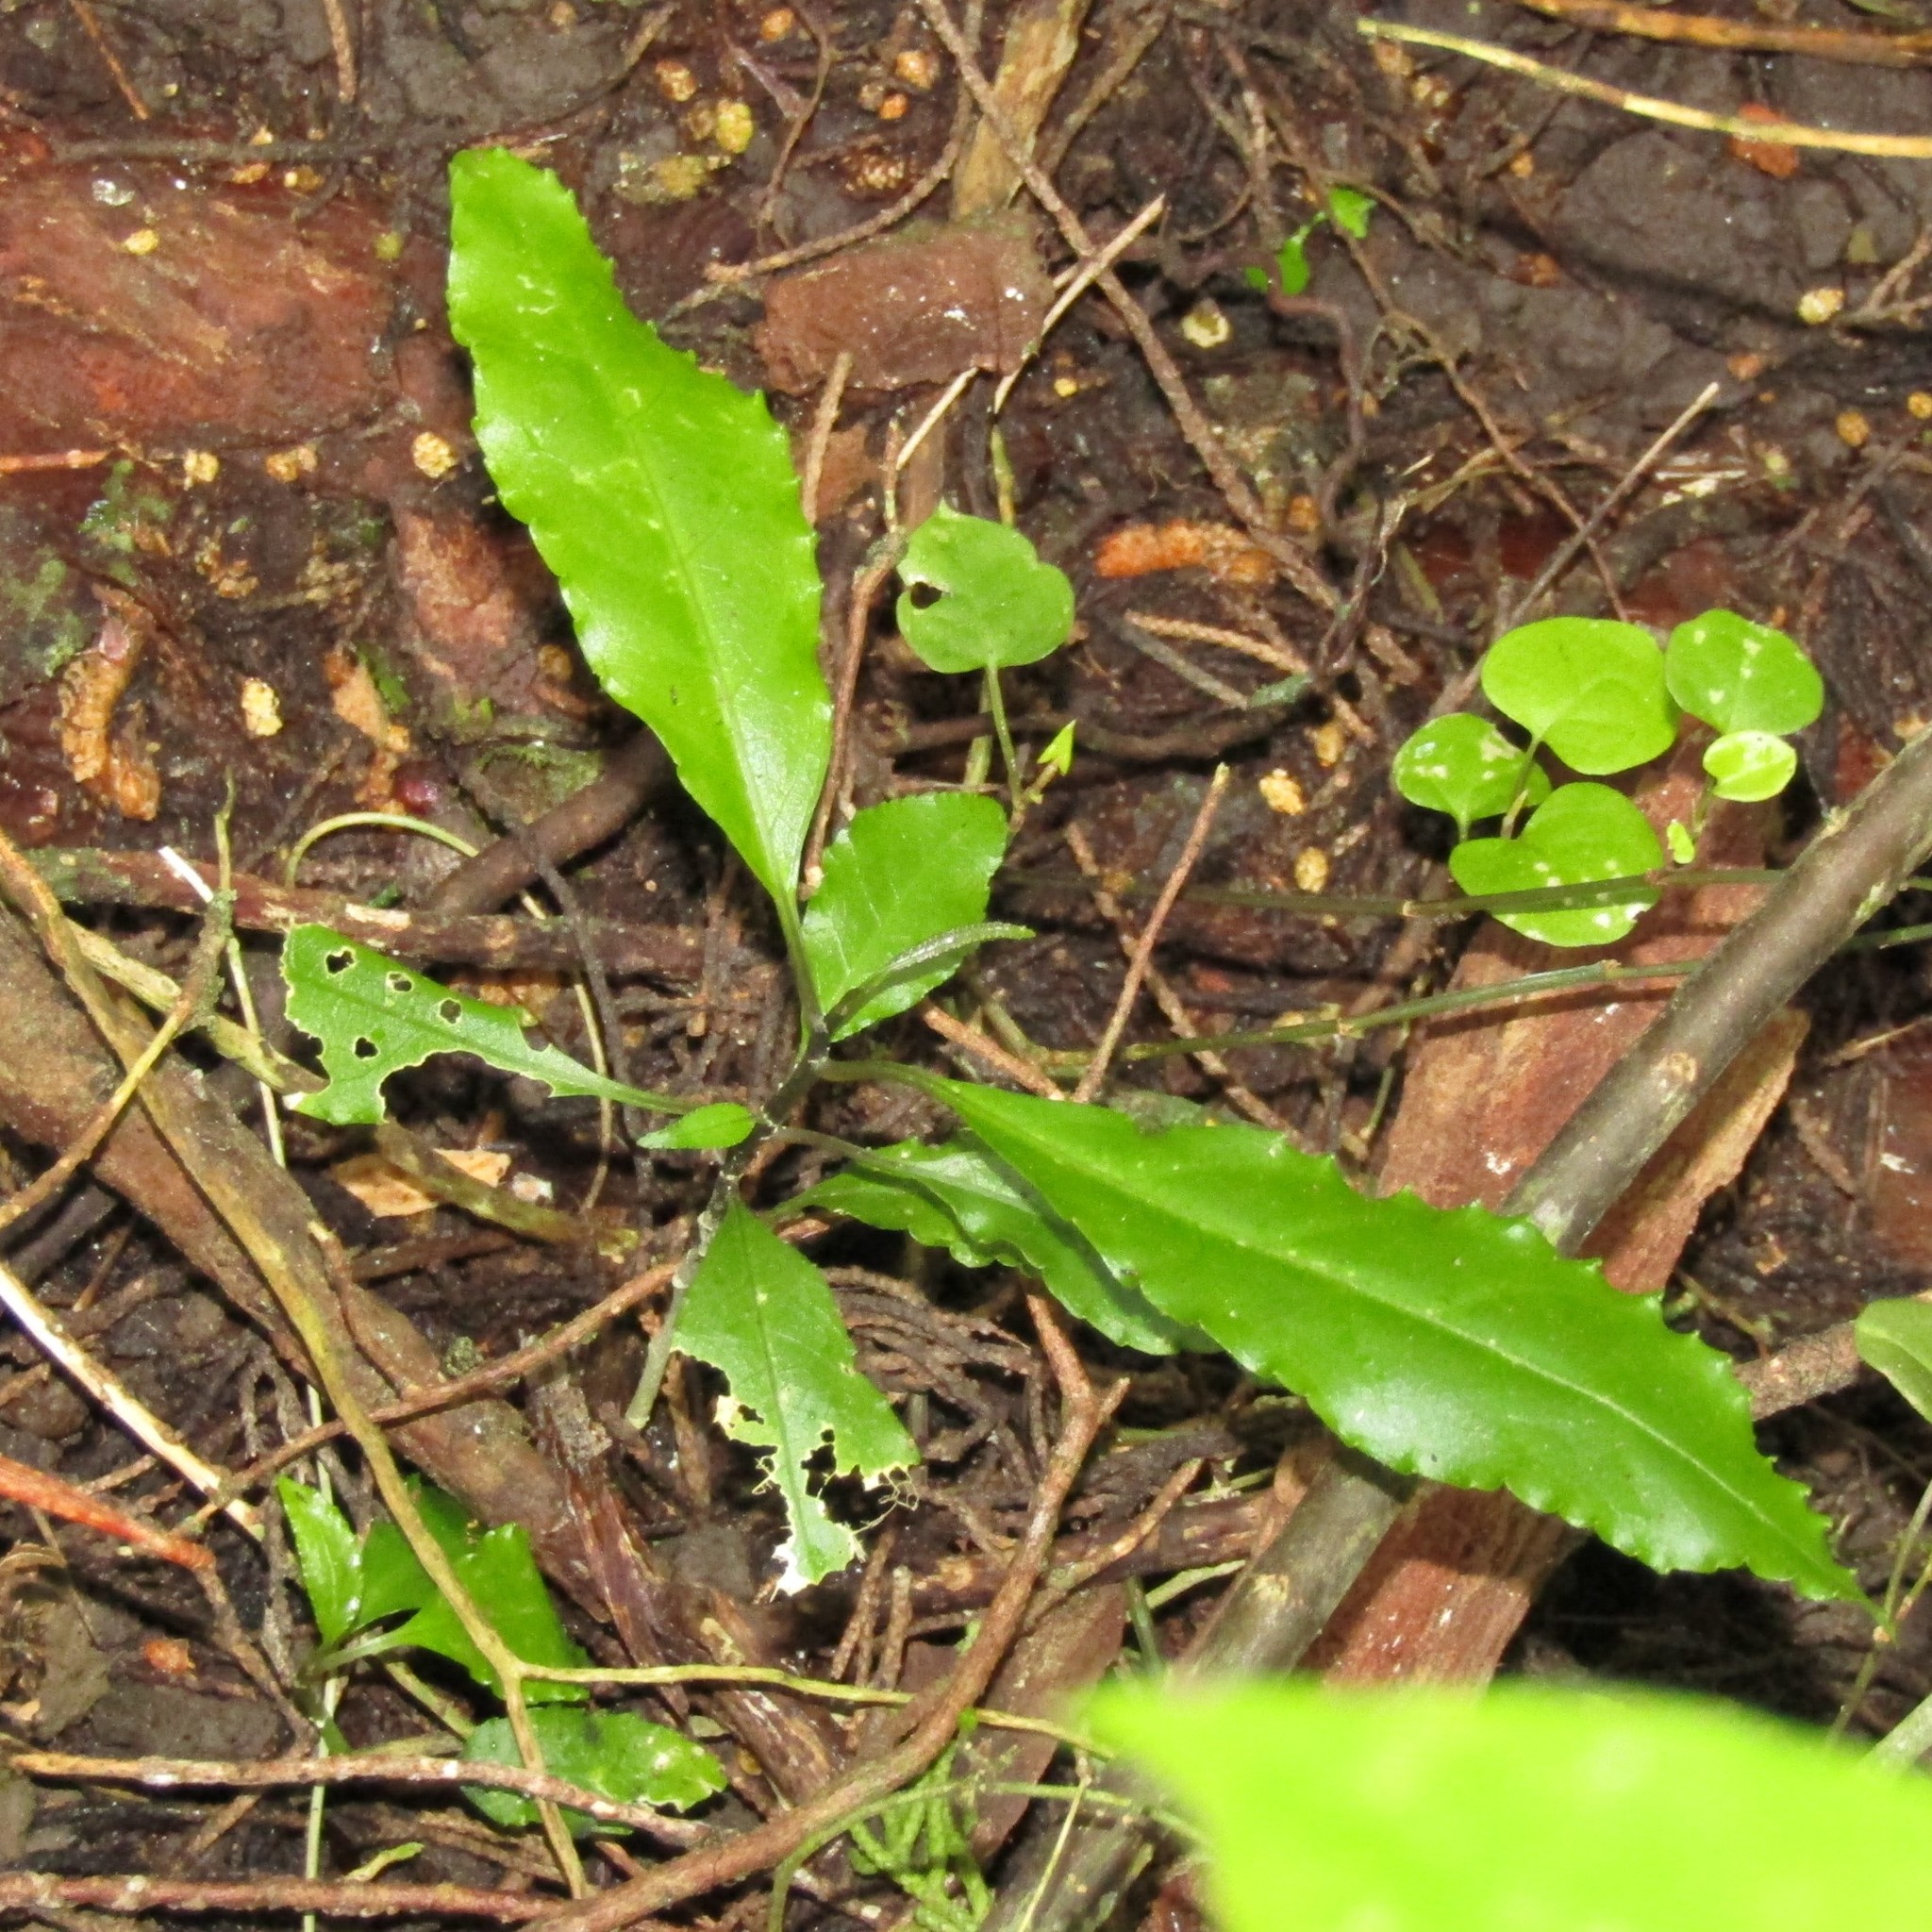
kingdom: Plantae
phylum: Tracheophyta
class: Magnoliopsida
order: Malpighiales
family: Violaceae
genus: Melicytus
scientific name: Melicytus ramiflorus
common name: Mahoe
